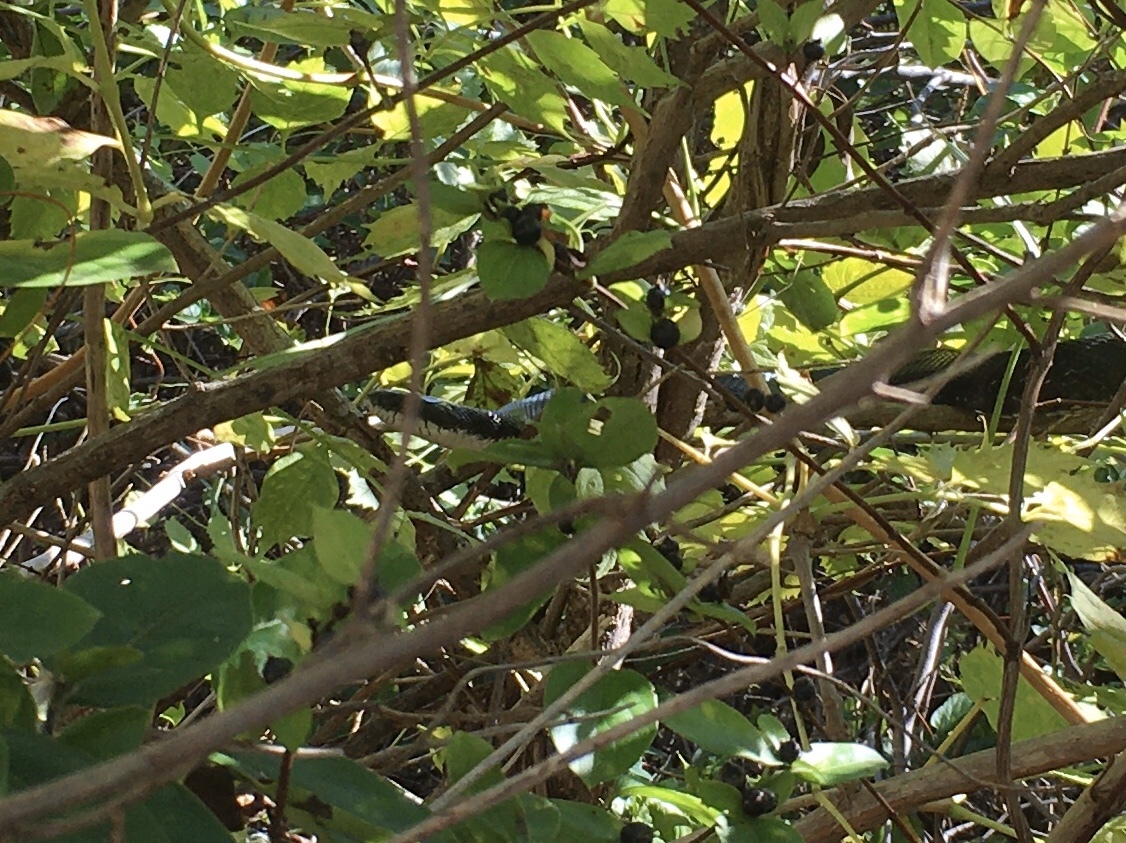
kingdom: Animalia
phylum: Chordata
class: Squamata
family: Colubridae
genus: Pantherophis
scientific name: Pantherophis alleghaniensis
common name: Eastern rat snake
